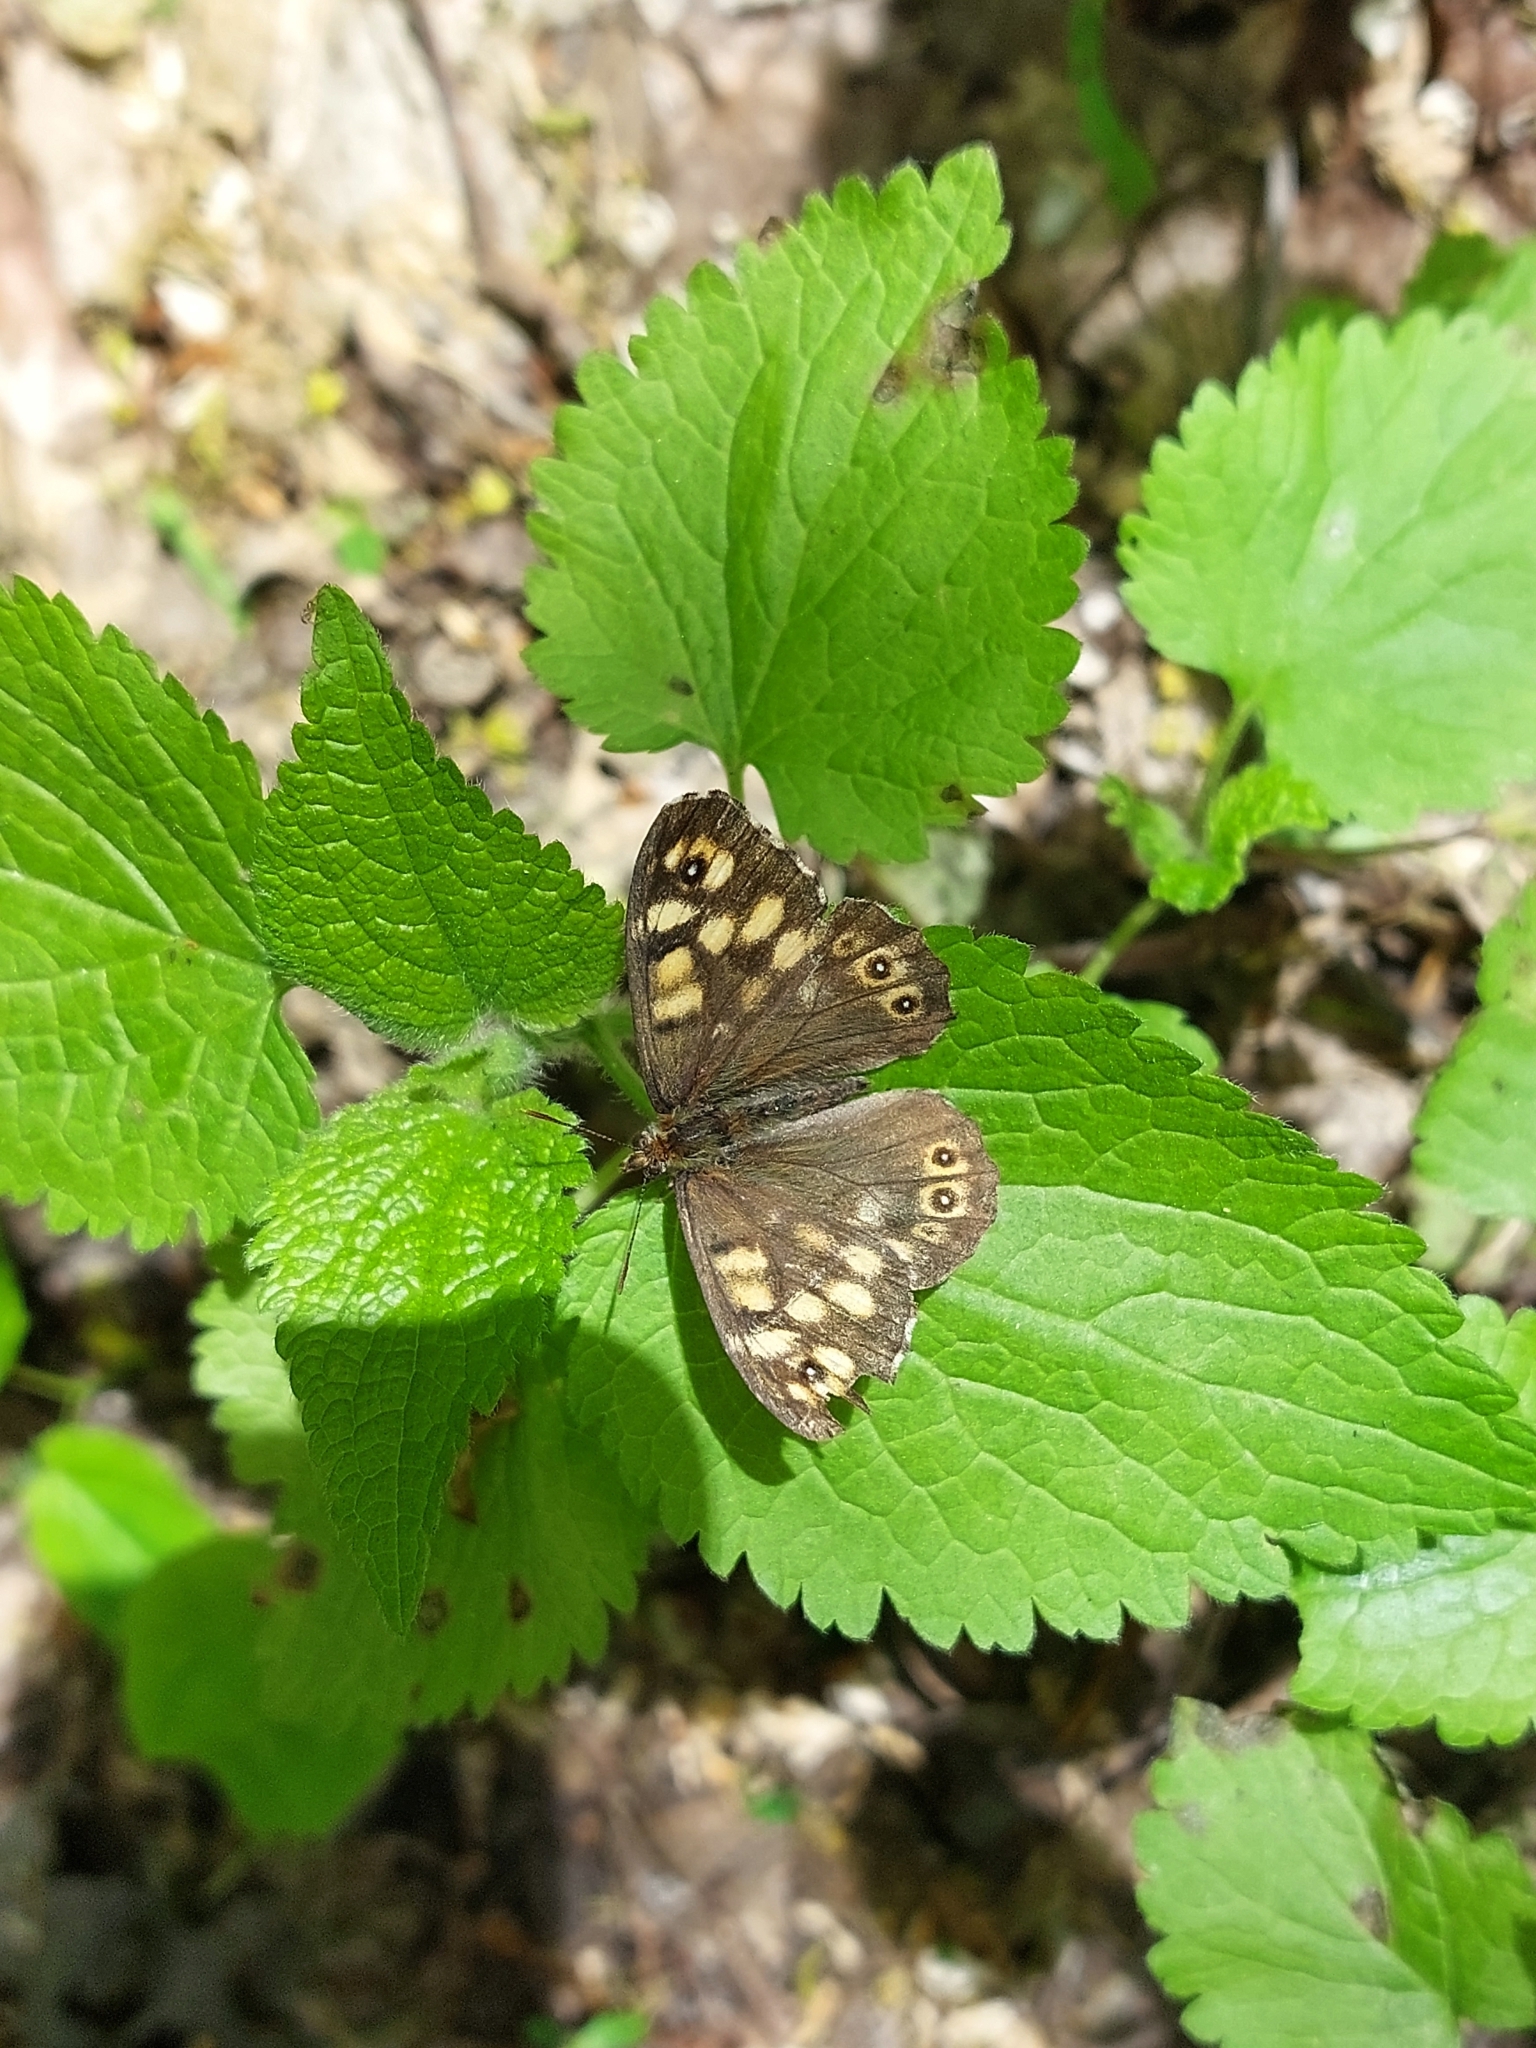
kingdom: Animalia
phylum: Arthropoda
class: Insecta
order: Lepidoptera
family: Nymphalidae
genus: Pararge
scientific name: Pararge aegeria
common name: Speckled wood
